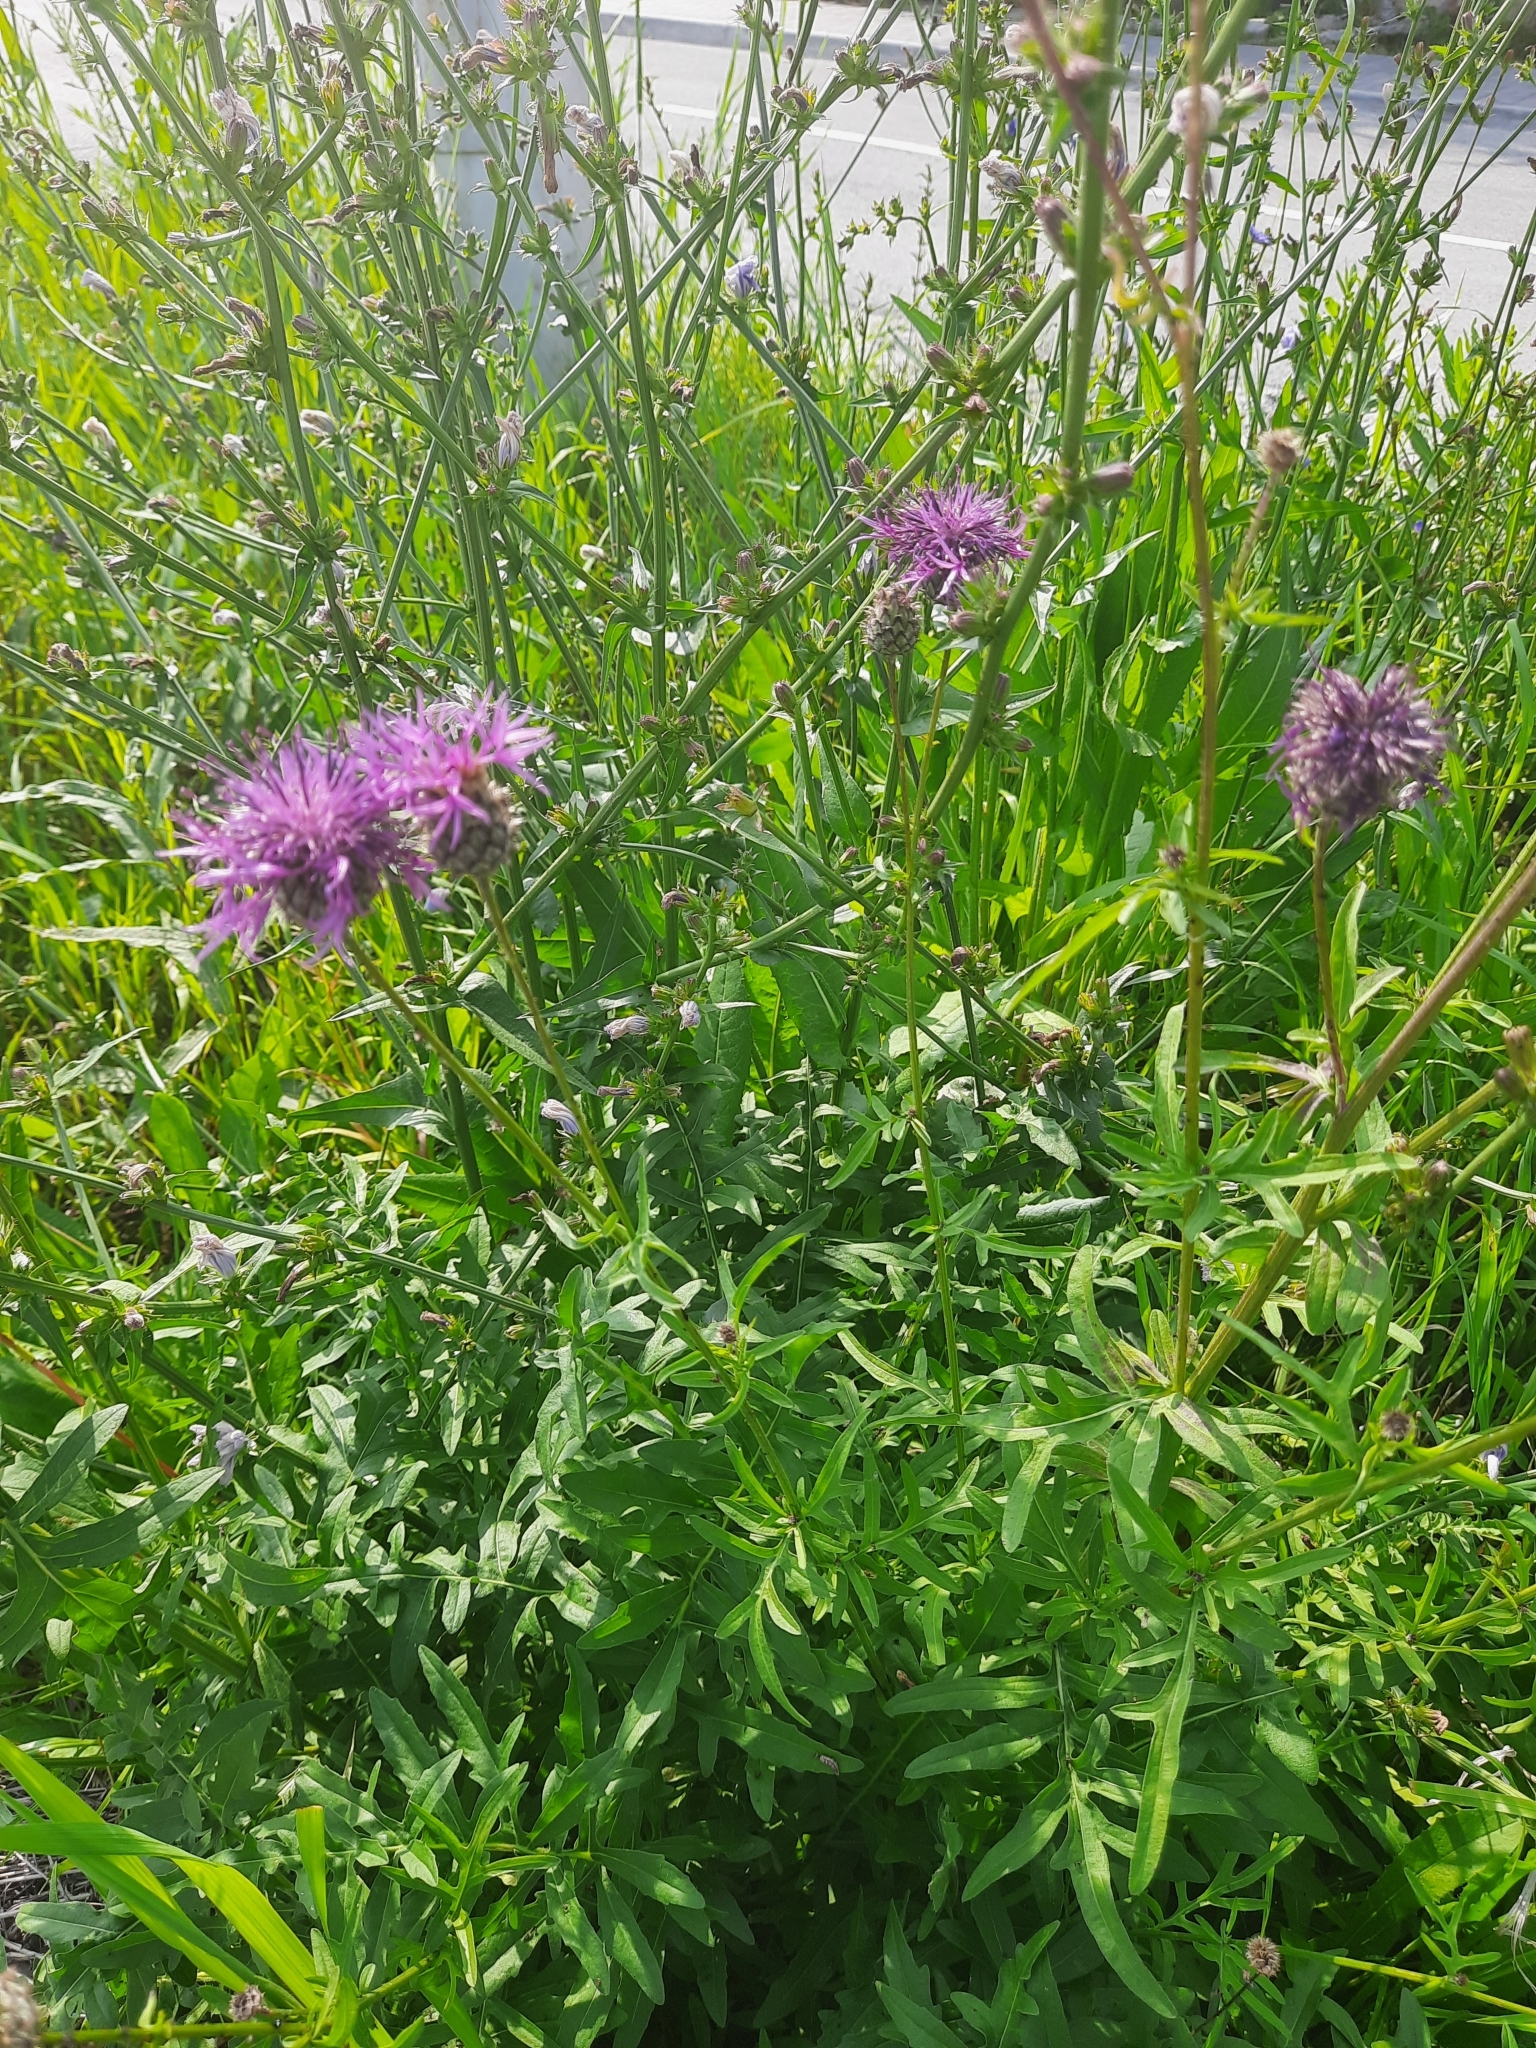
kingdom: Plantae
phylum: Tracheophyta
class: Magnoliopsida
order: Asterales
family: Asteraceae
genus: Centaurea
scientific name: Centaurea scabiosa
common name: Greater knapweed
